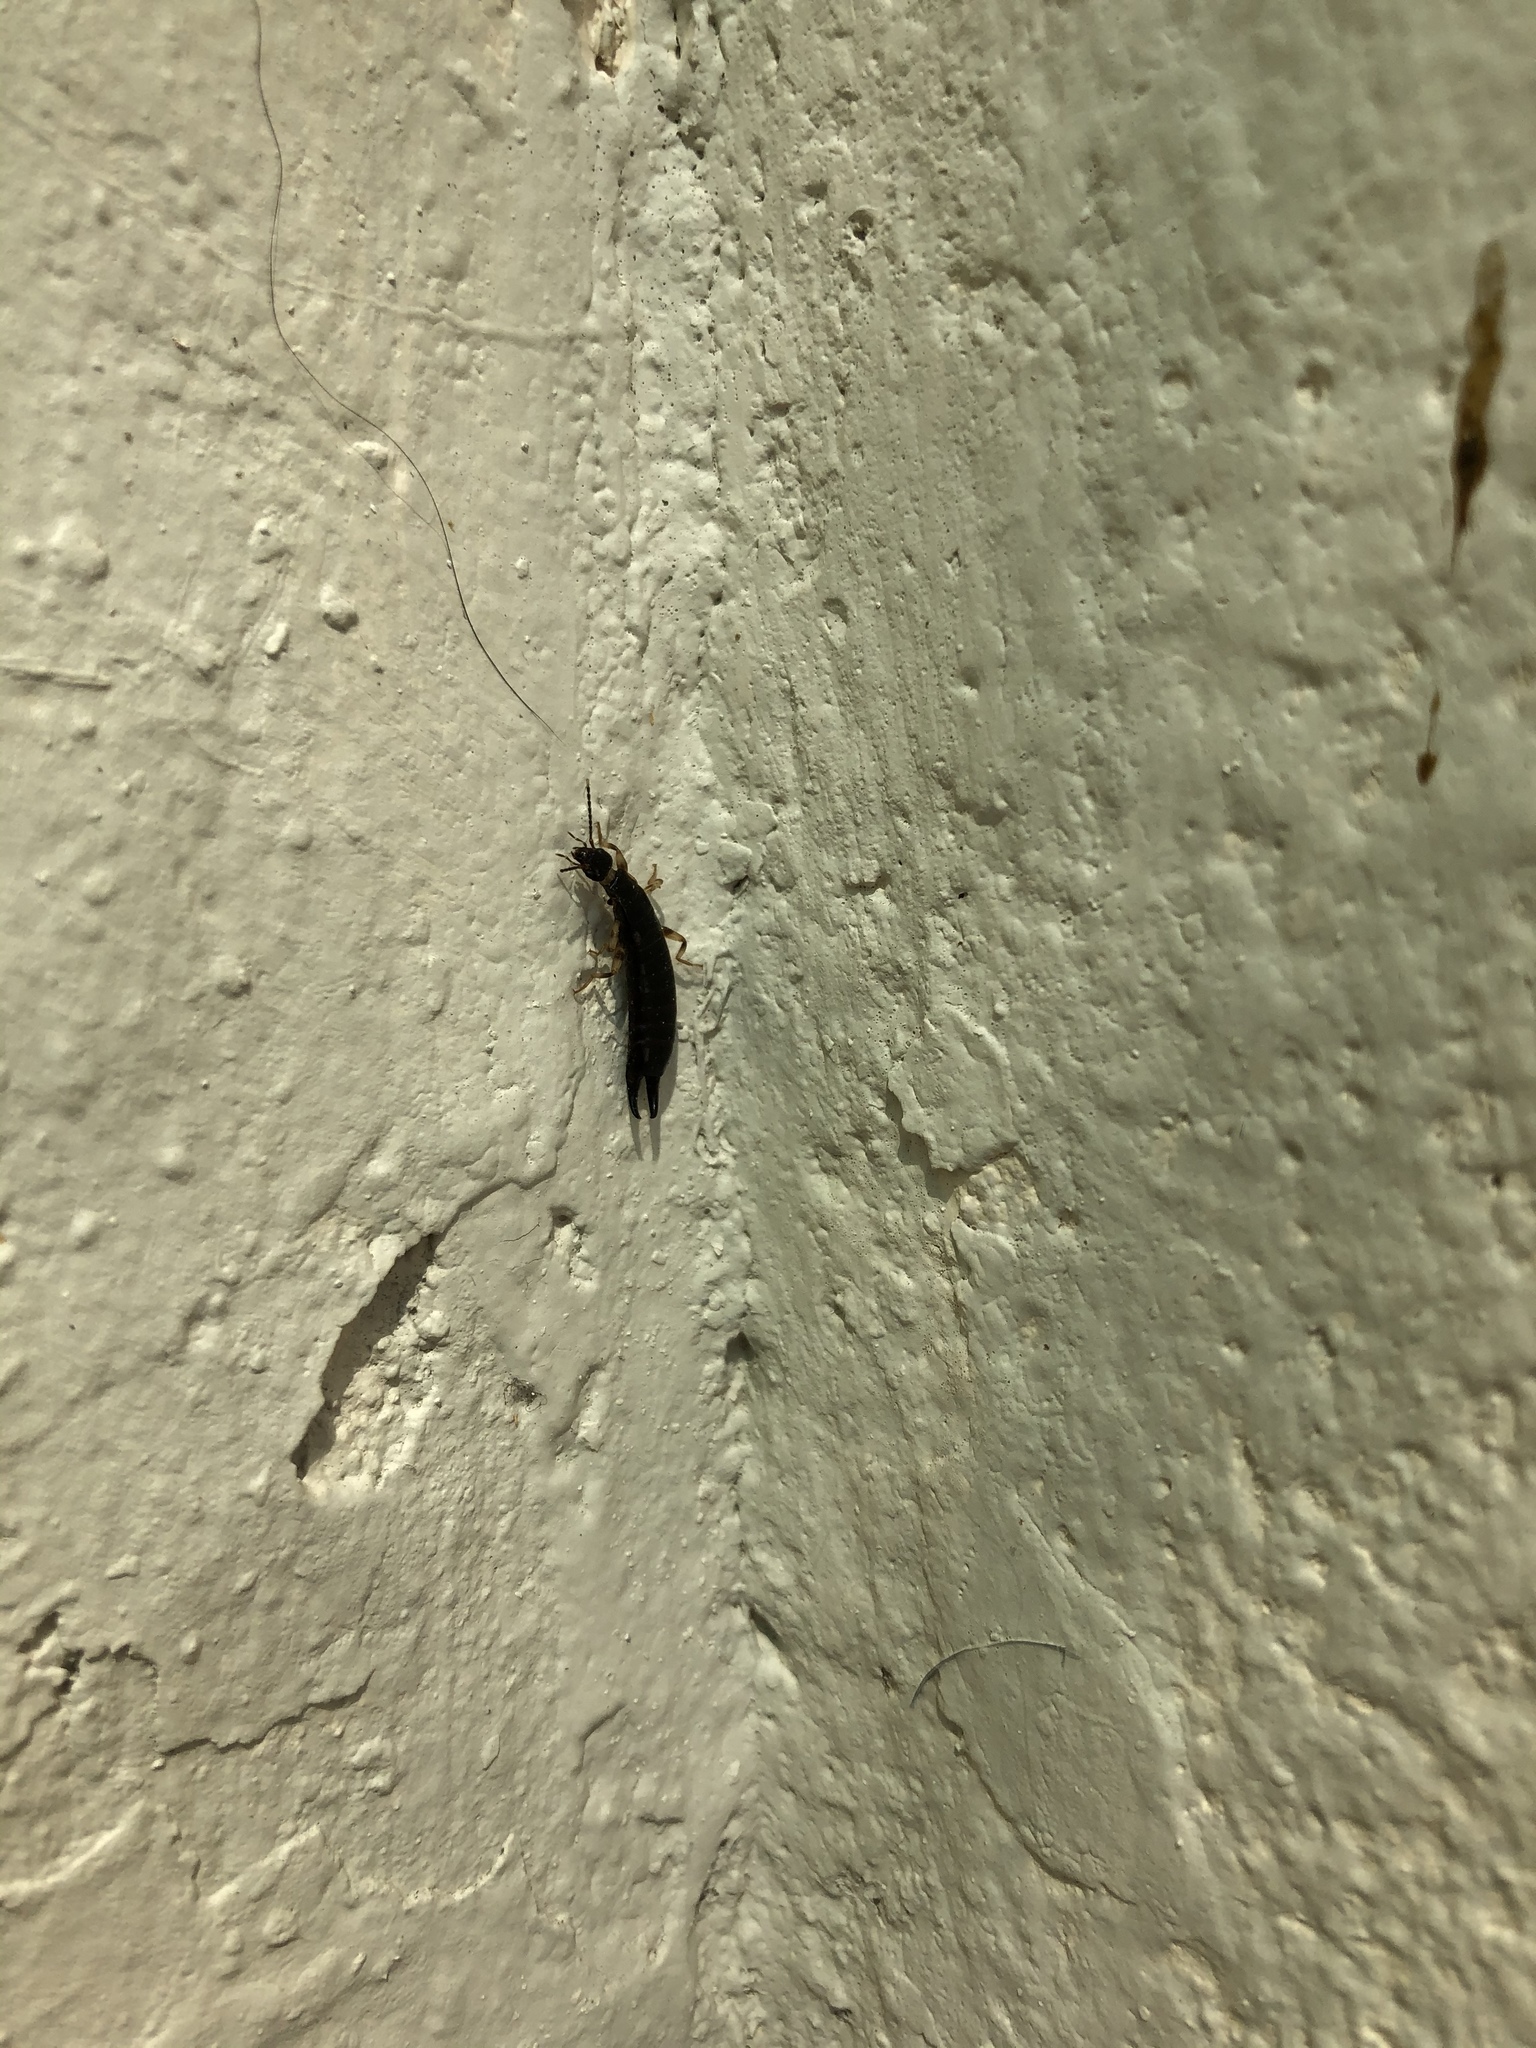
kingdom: Animalia
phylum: Arthropoda
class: Insecta
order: Dermaptera
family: Anisolabididae
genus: Euborellia
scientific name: Euborellia annulipes
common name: Ringlegged earwig
